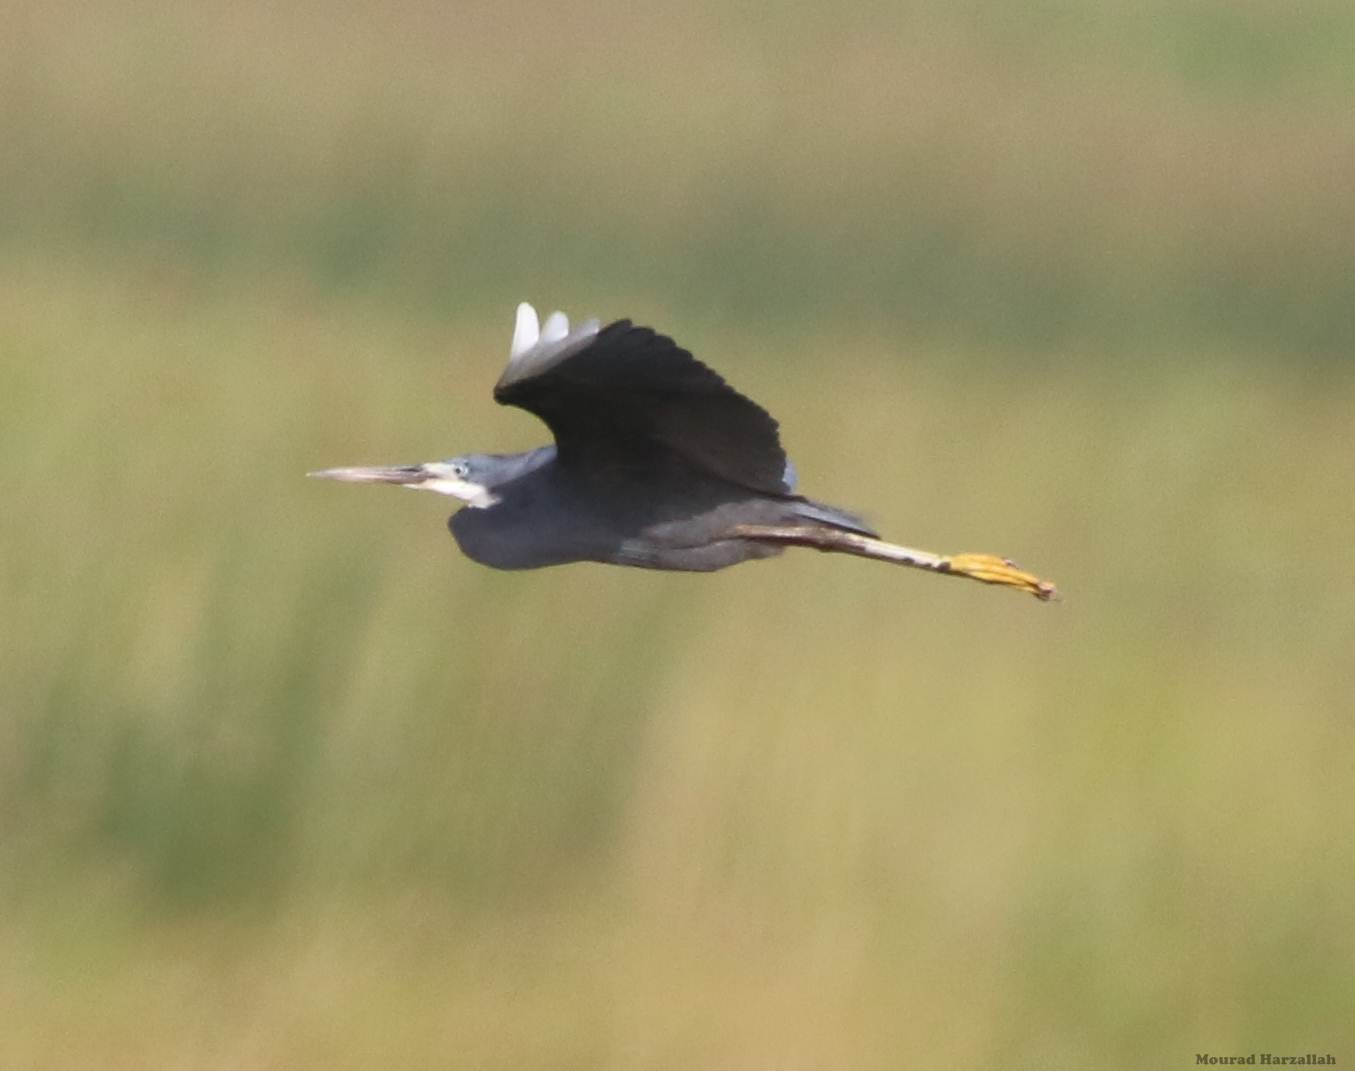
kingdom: Animalia
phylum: Chordata
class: Aves
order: Pelecaniformes
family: Ardeidae
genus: Egretta
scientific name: Egretta gularis
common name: Western reef-heron
